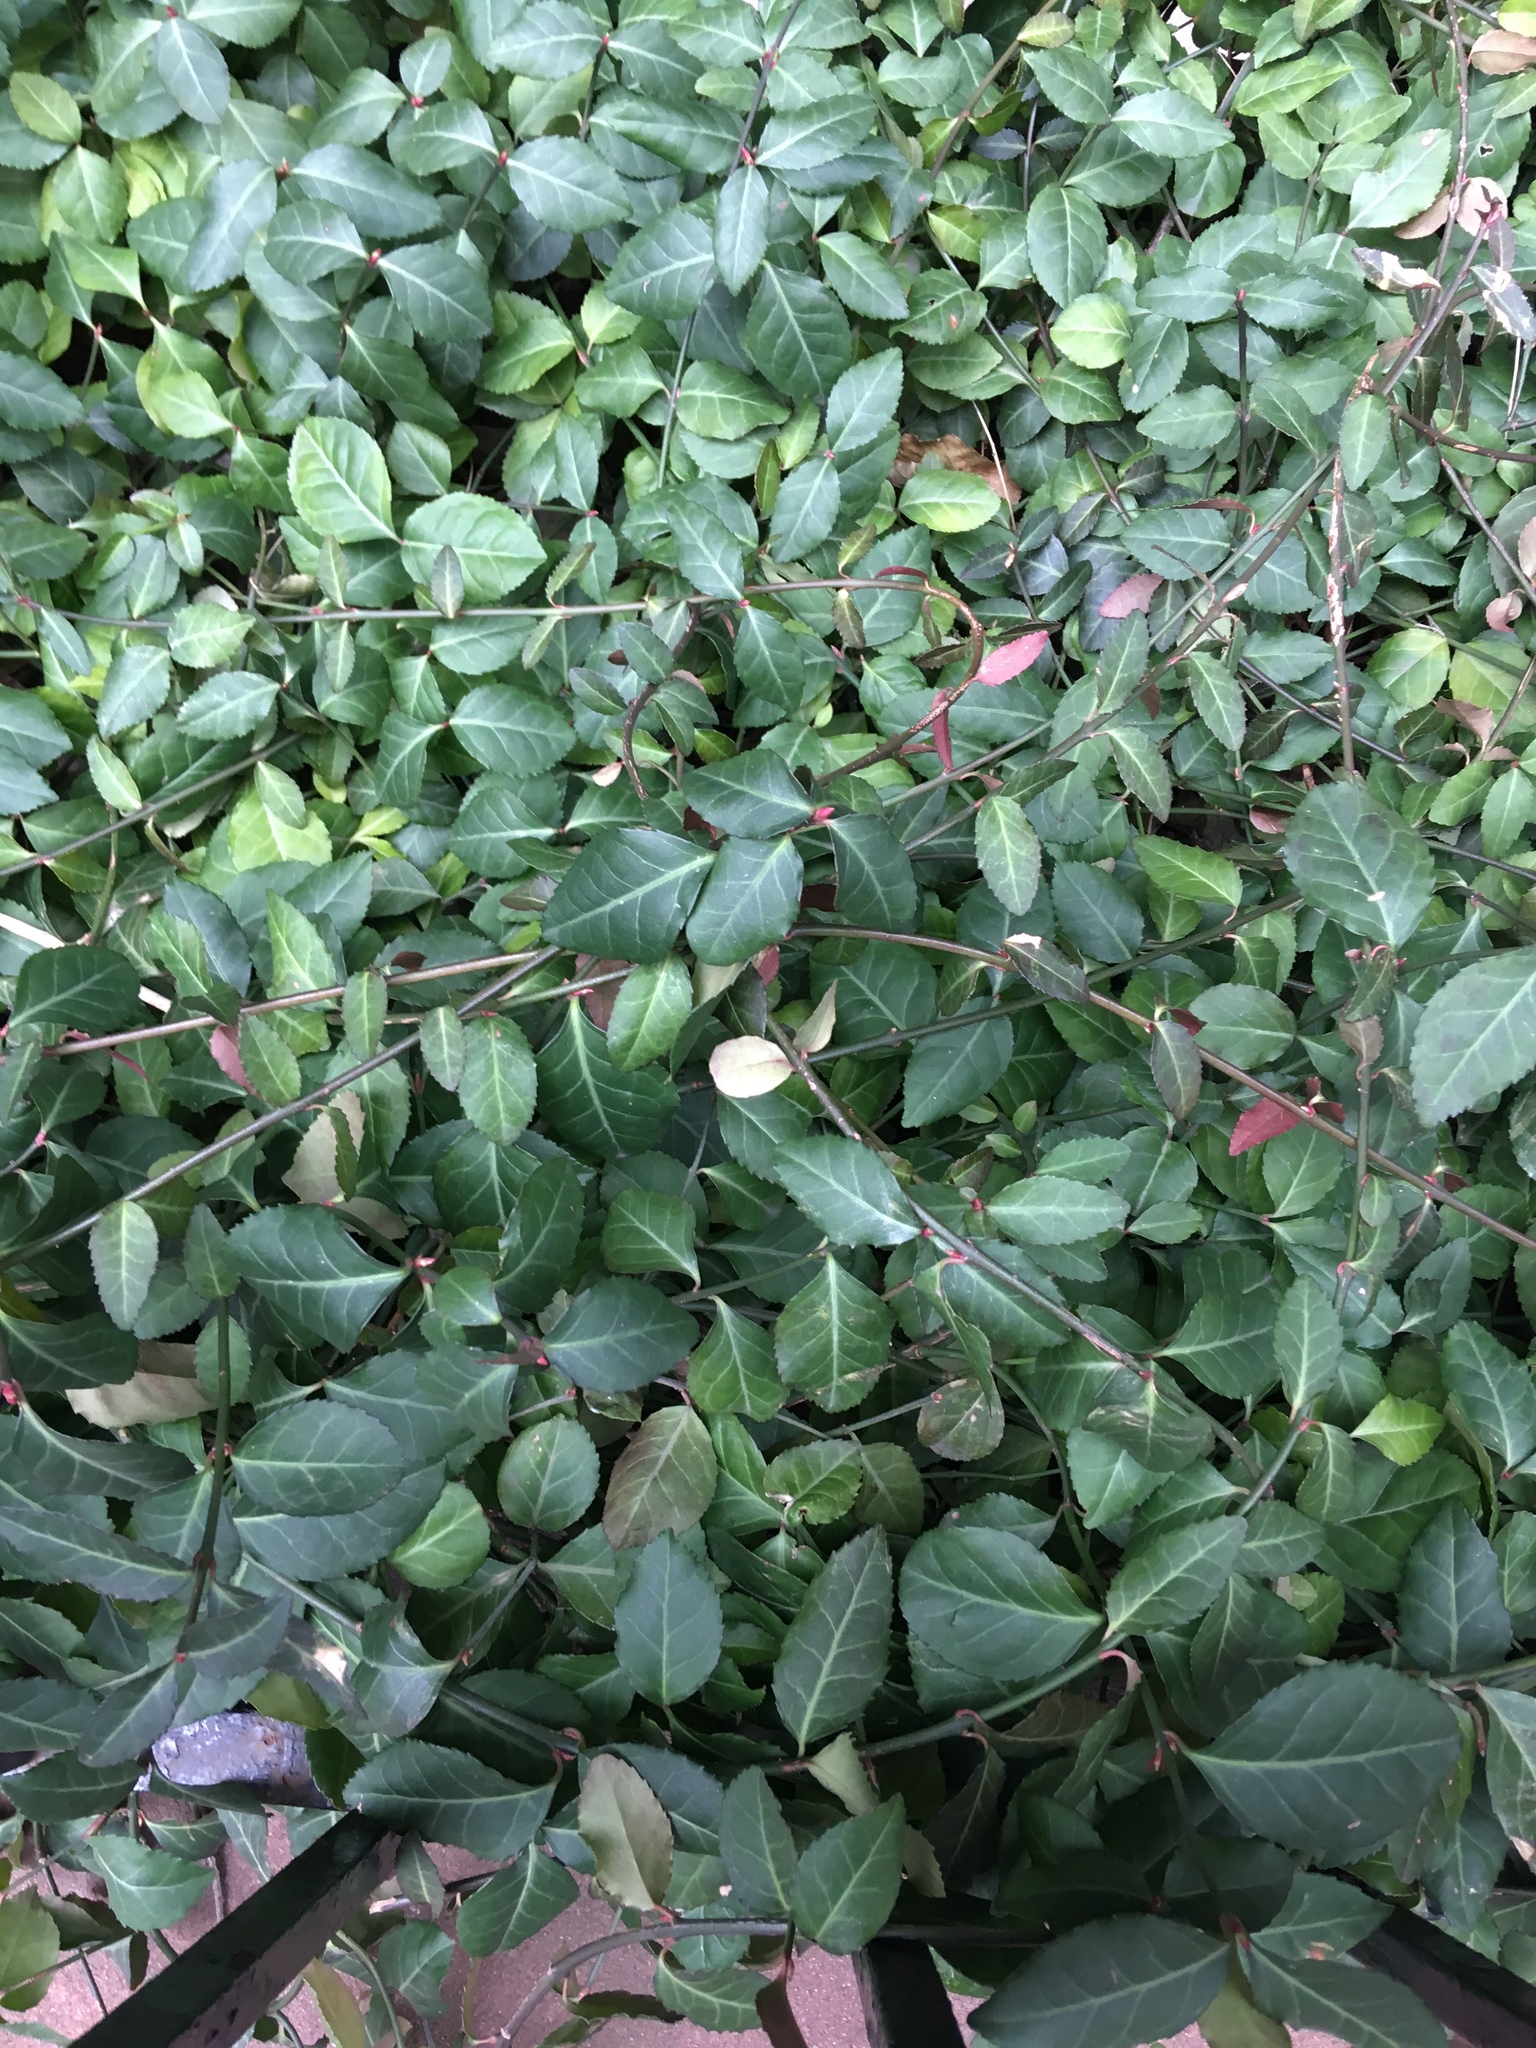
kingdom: Plantae
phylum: Tracheophyta
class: Magnoliopsida
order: Celastrales
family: Celastraceae
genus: Euonymus
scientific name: Euonymus fortunei
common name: Climbing euonymus
